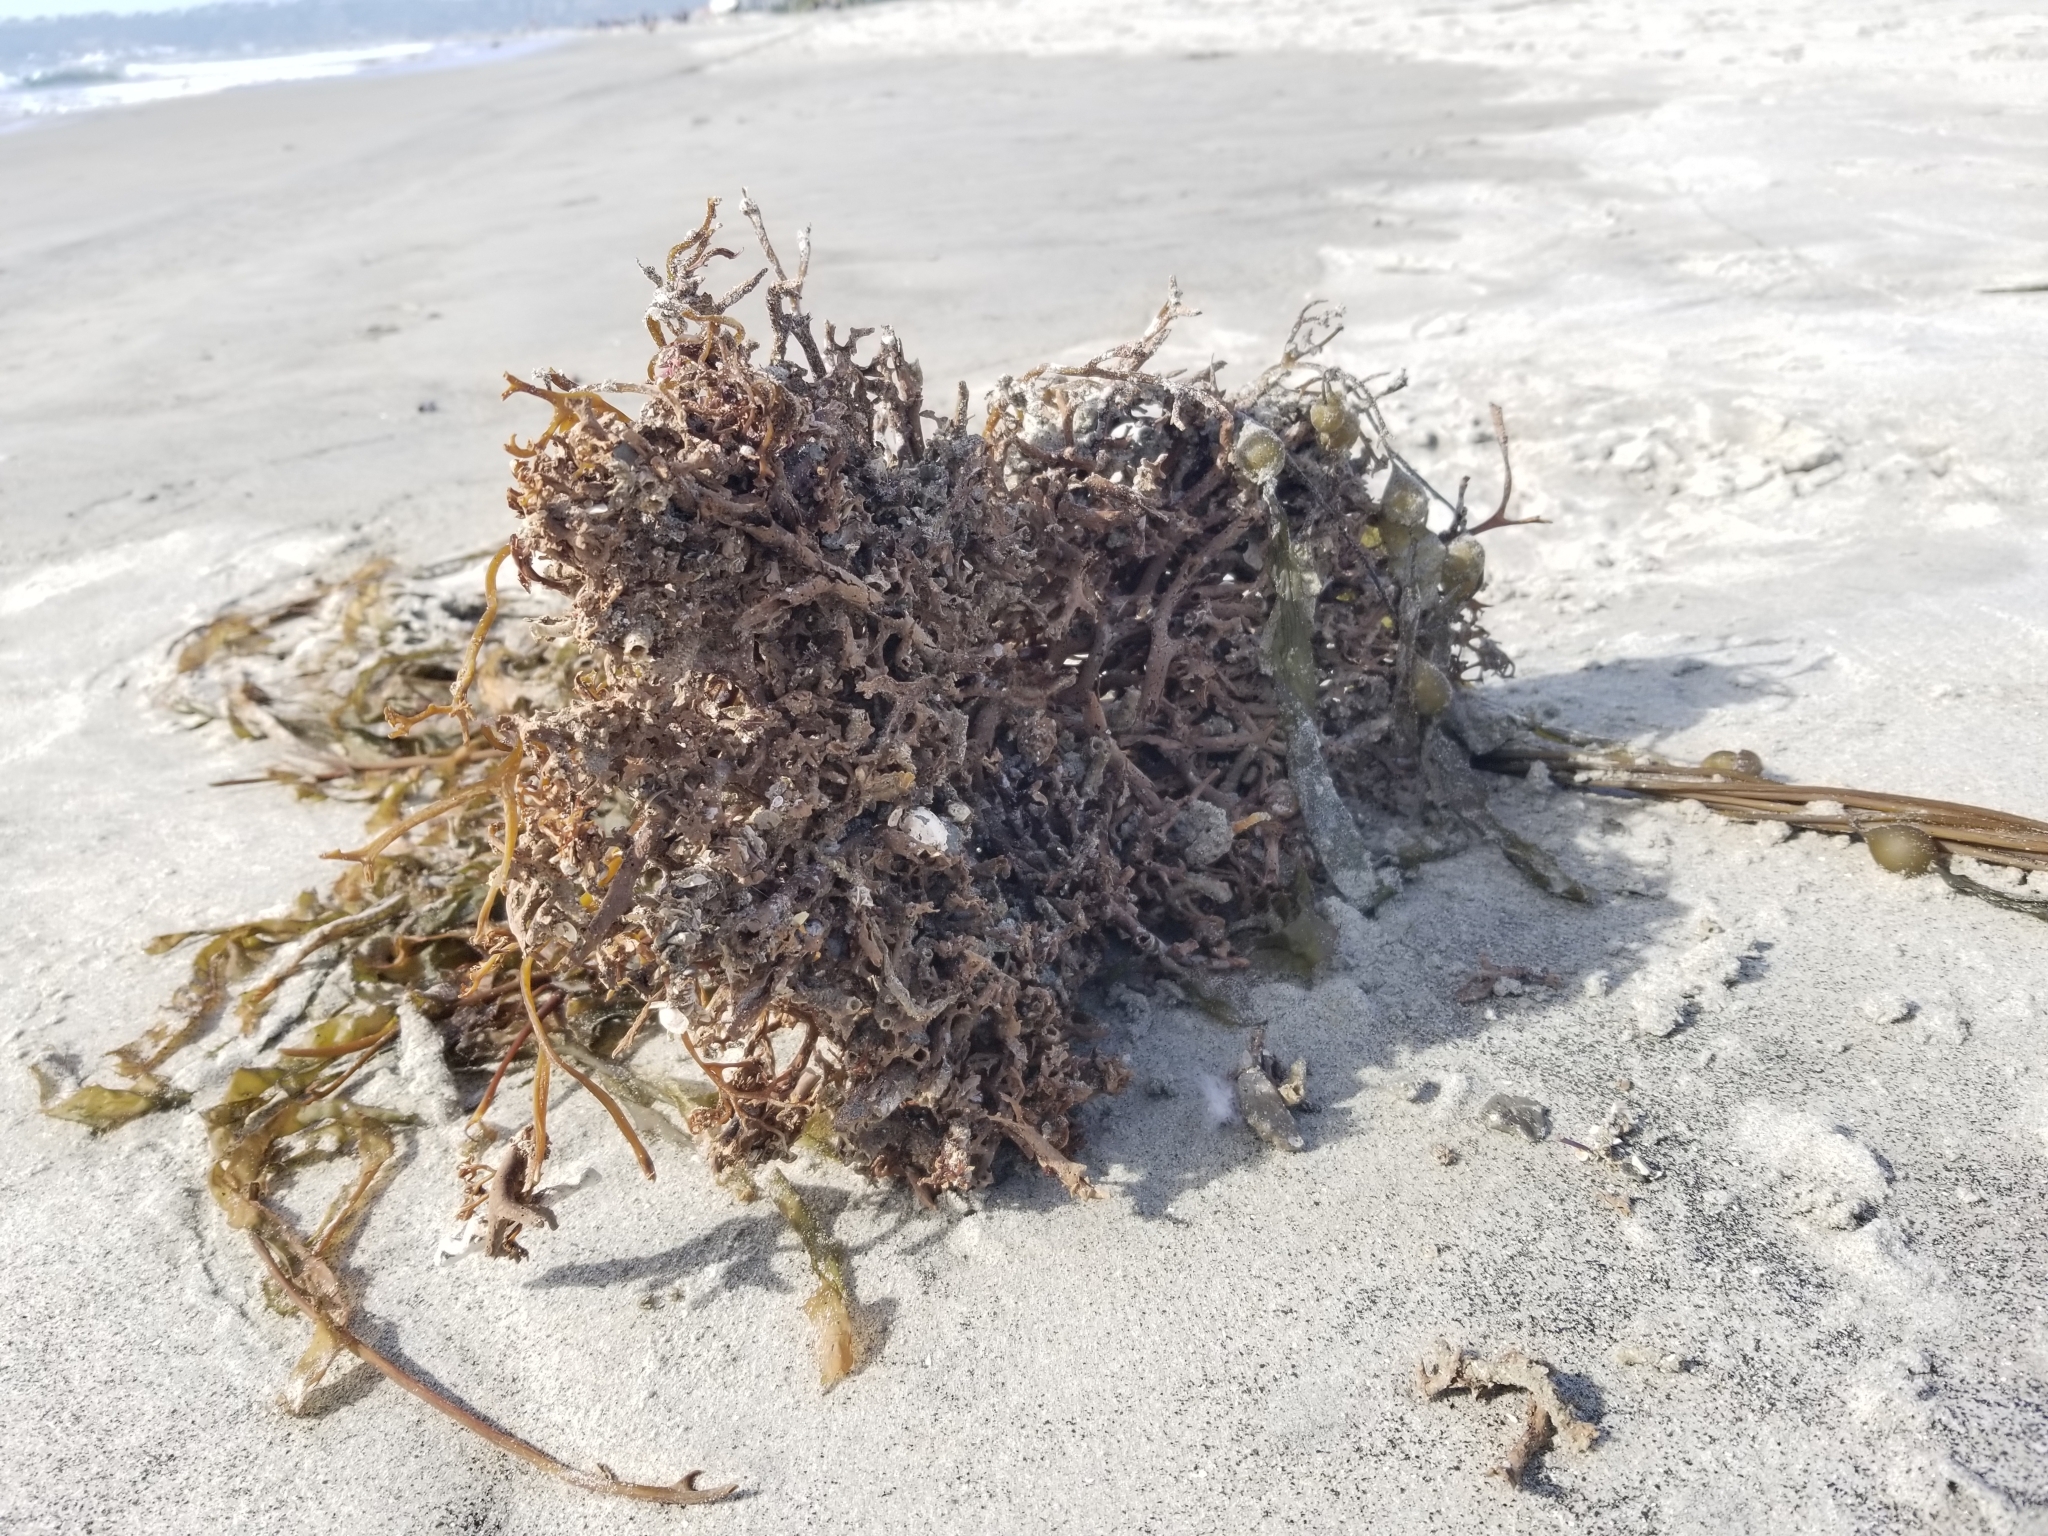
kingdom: Chromista
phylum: Ochrophyta
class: Phaeophyceae
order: Laminariales
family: Laminariaceae
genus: Macrocystis
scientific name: Macrocystis pyrifera
